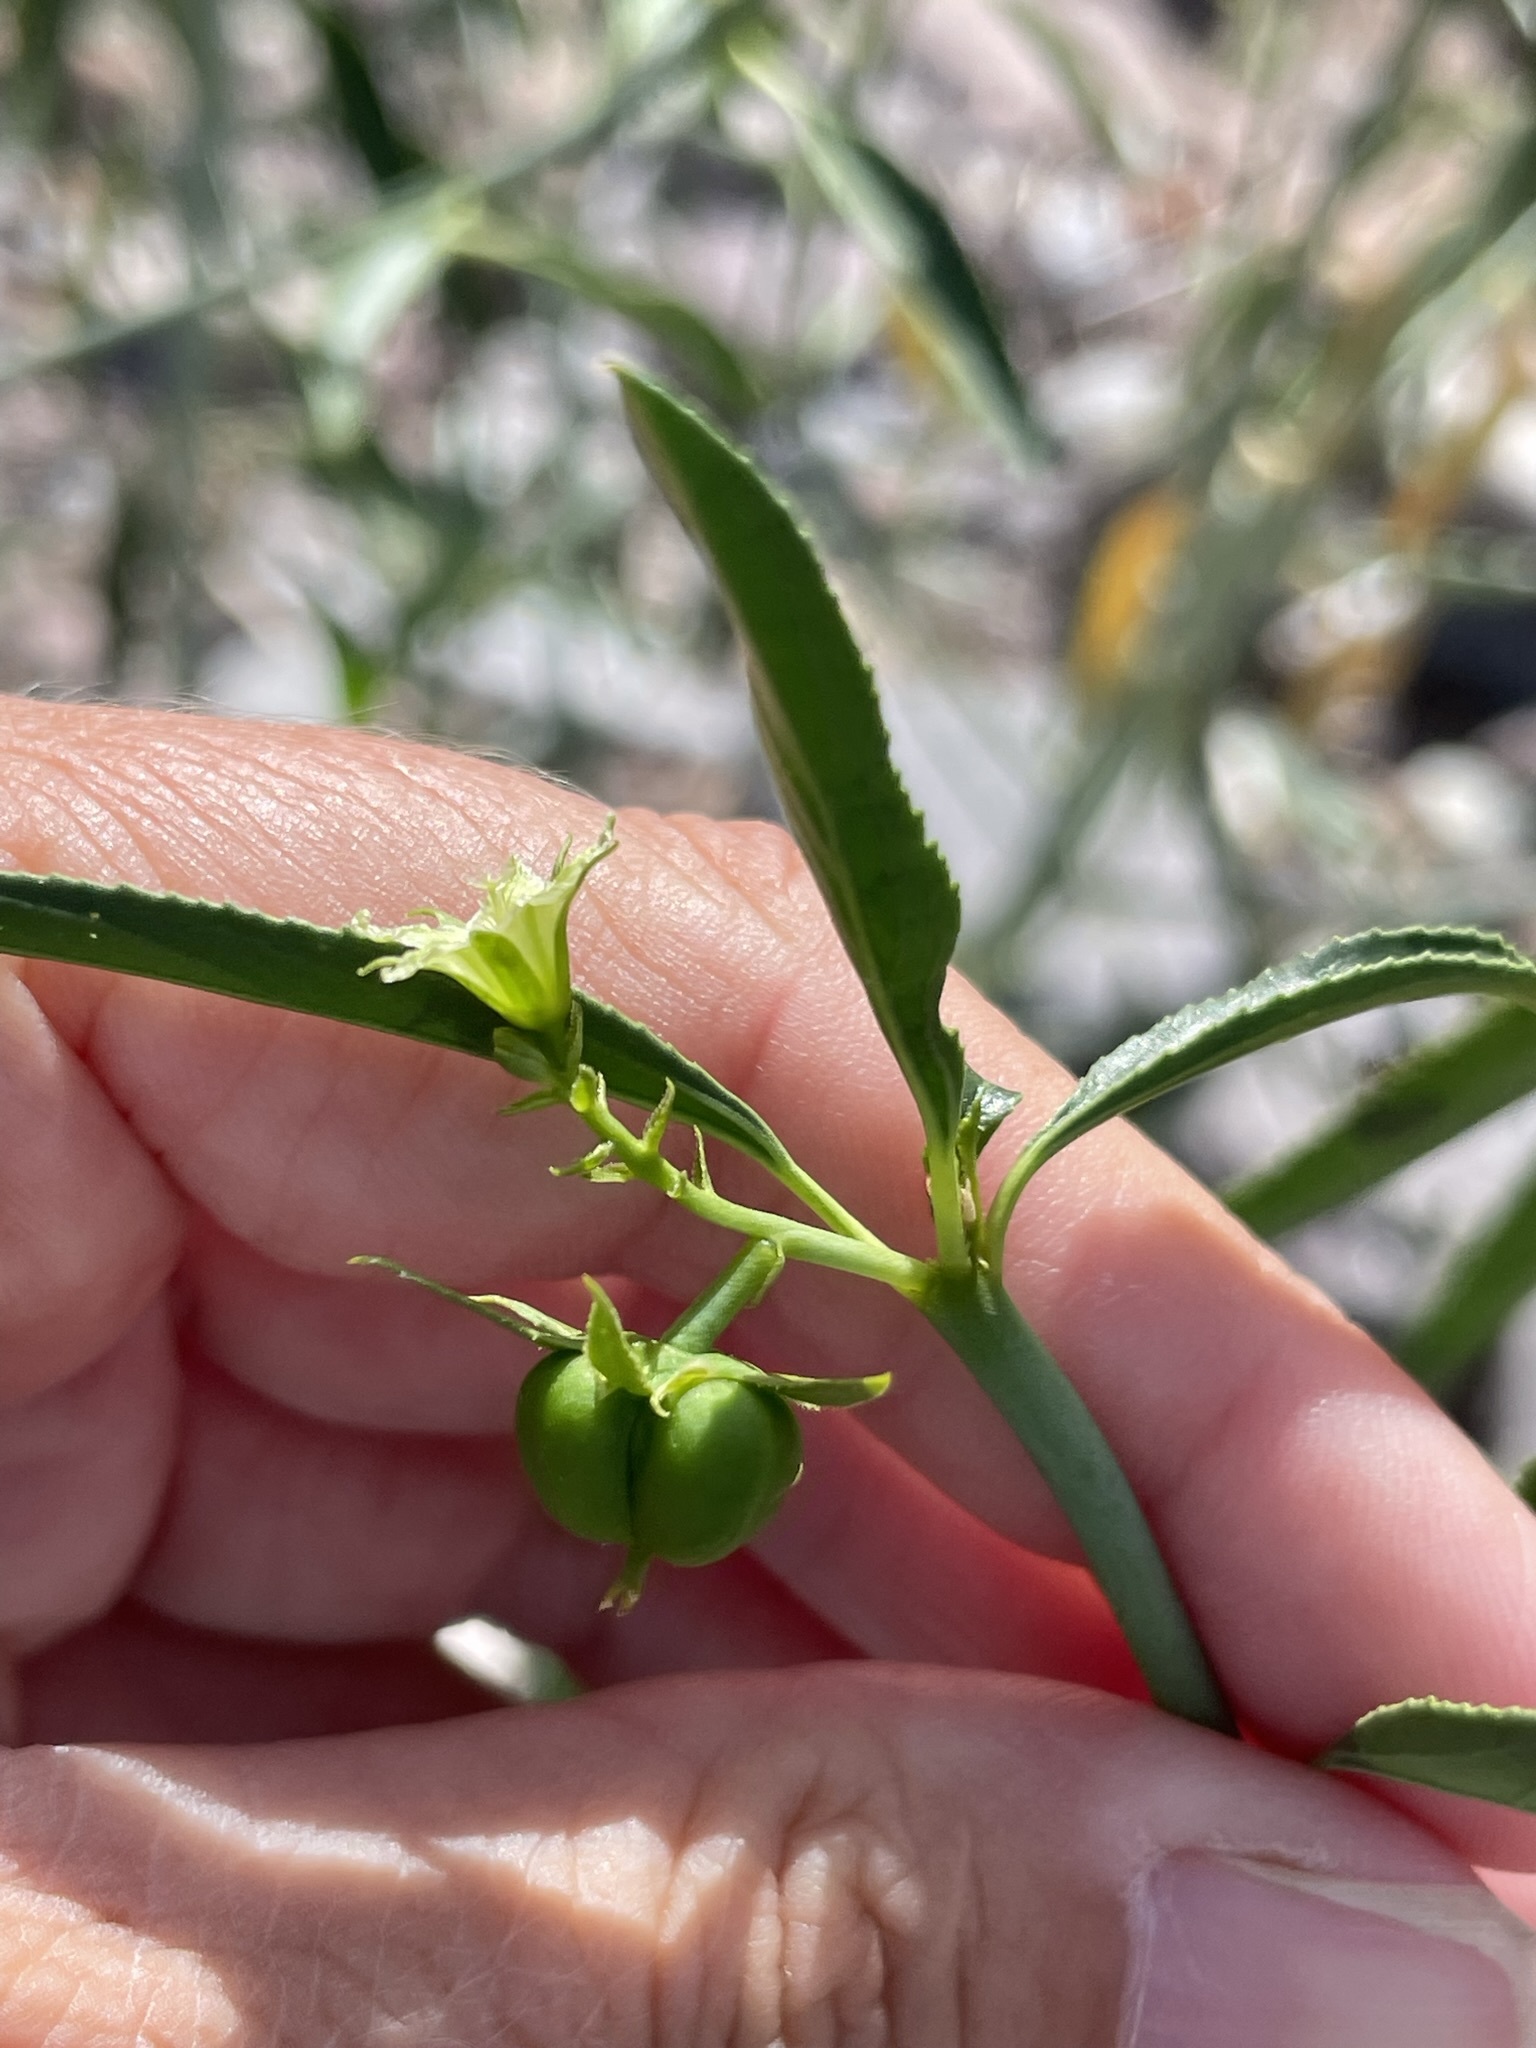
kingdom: Plantae
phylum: Tracheophyta
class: Magnoliopsida
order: Malpighiales
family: Euphorbiaceae
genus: Ditaxis
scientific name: Ditaxis brandegeei
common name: Sonoran silverbush
